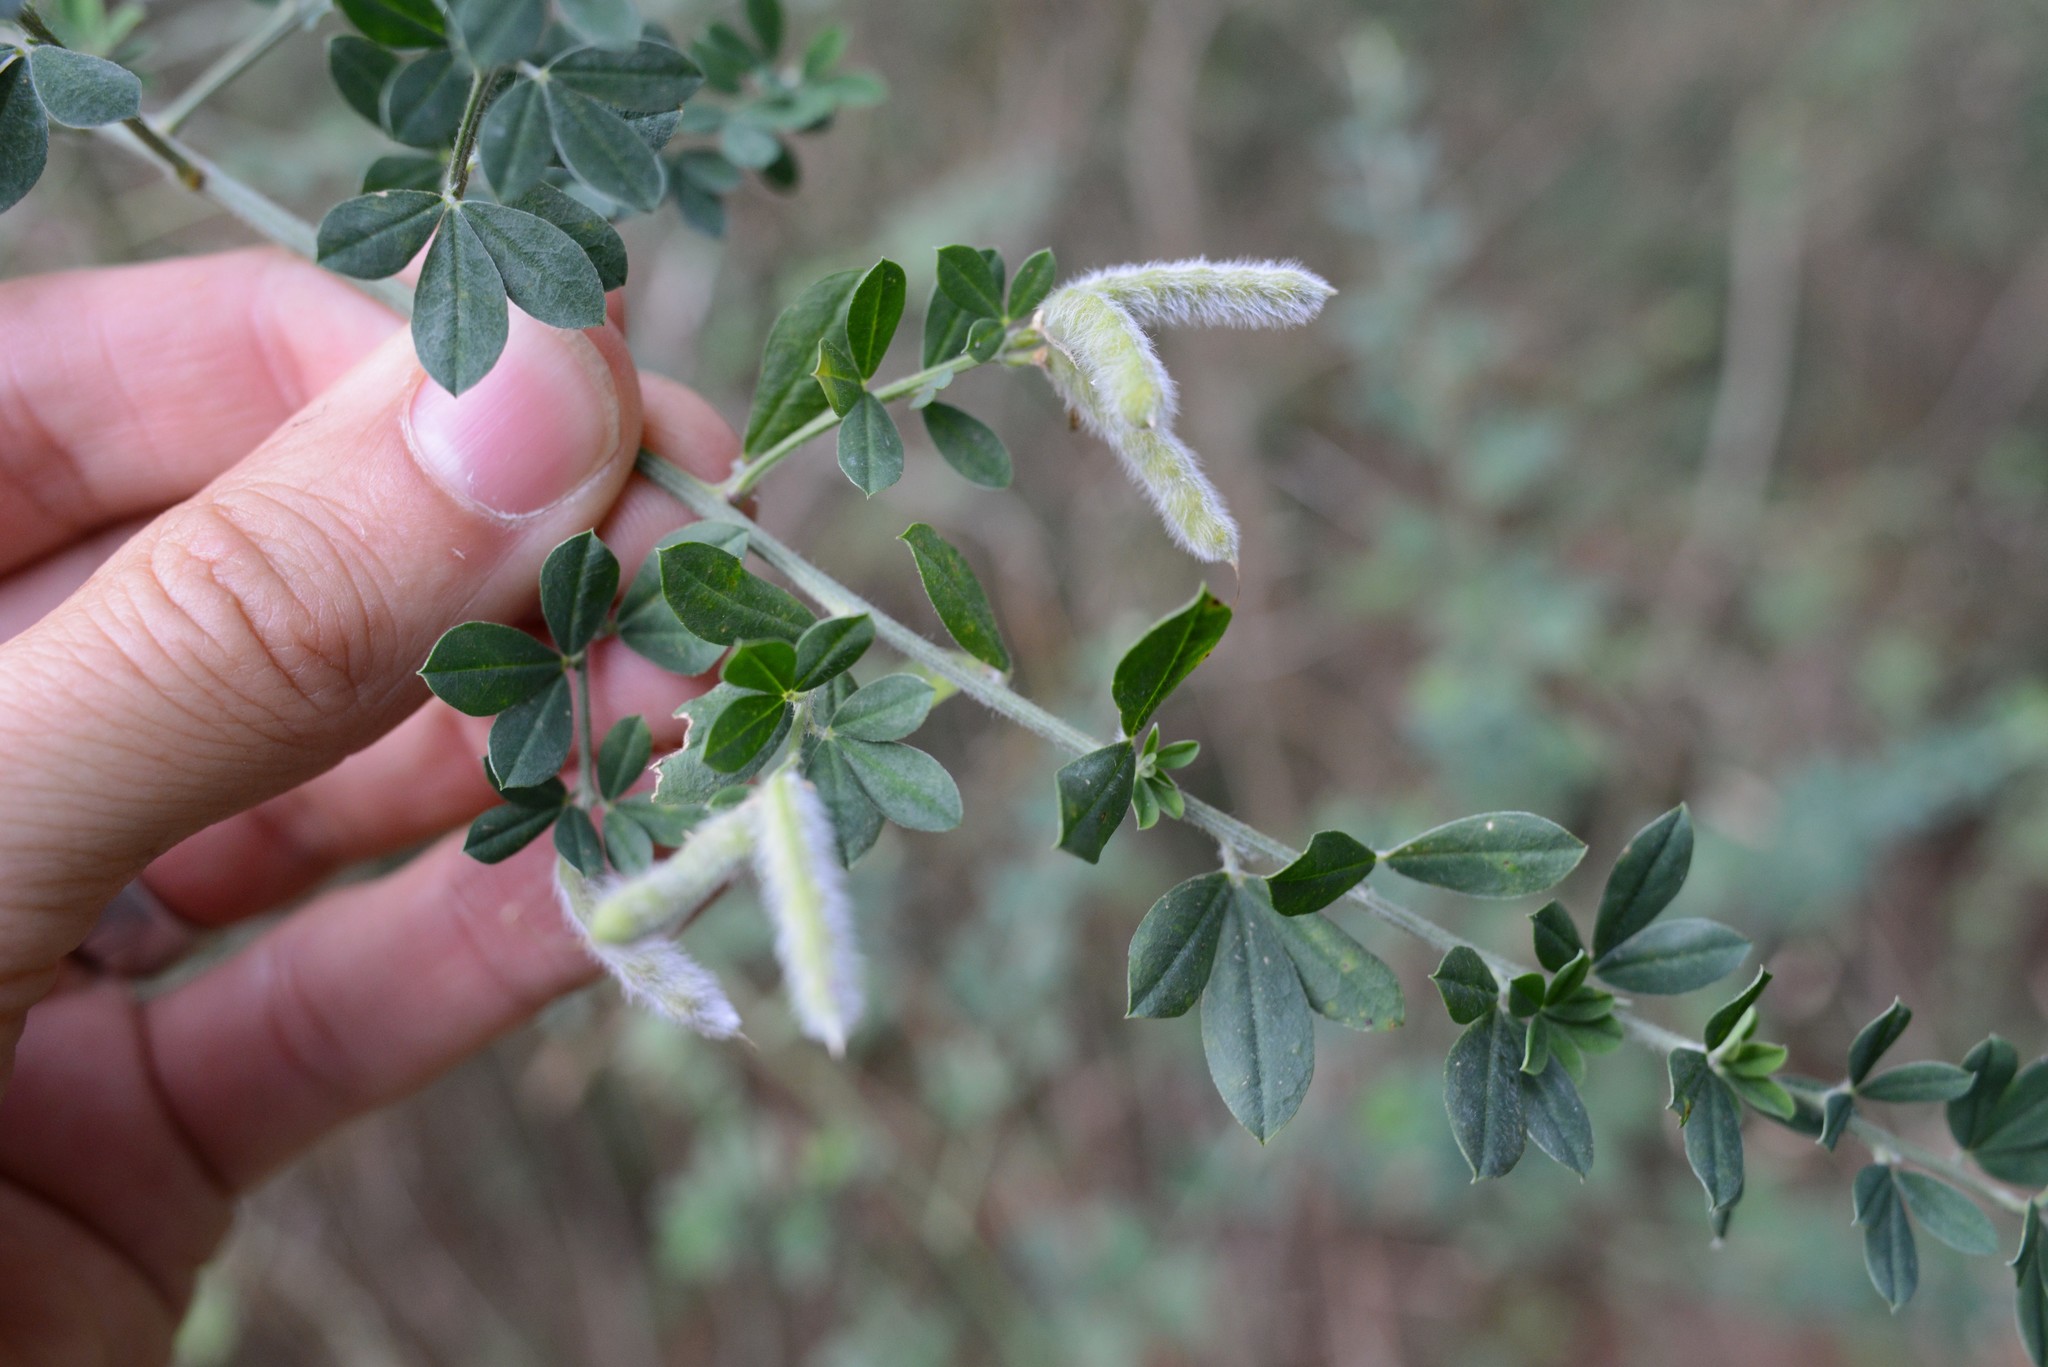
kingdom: Plantae
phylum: Tracheophyta
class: Magnoliopsida
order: Fabales
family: Fabaceae
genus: Genista
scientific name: Genista monspessulana
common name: Montpellier broom
